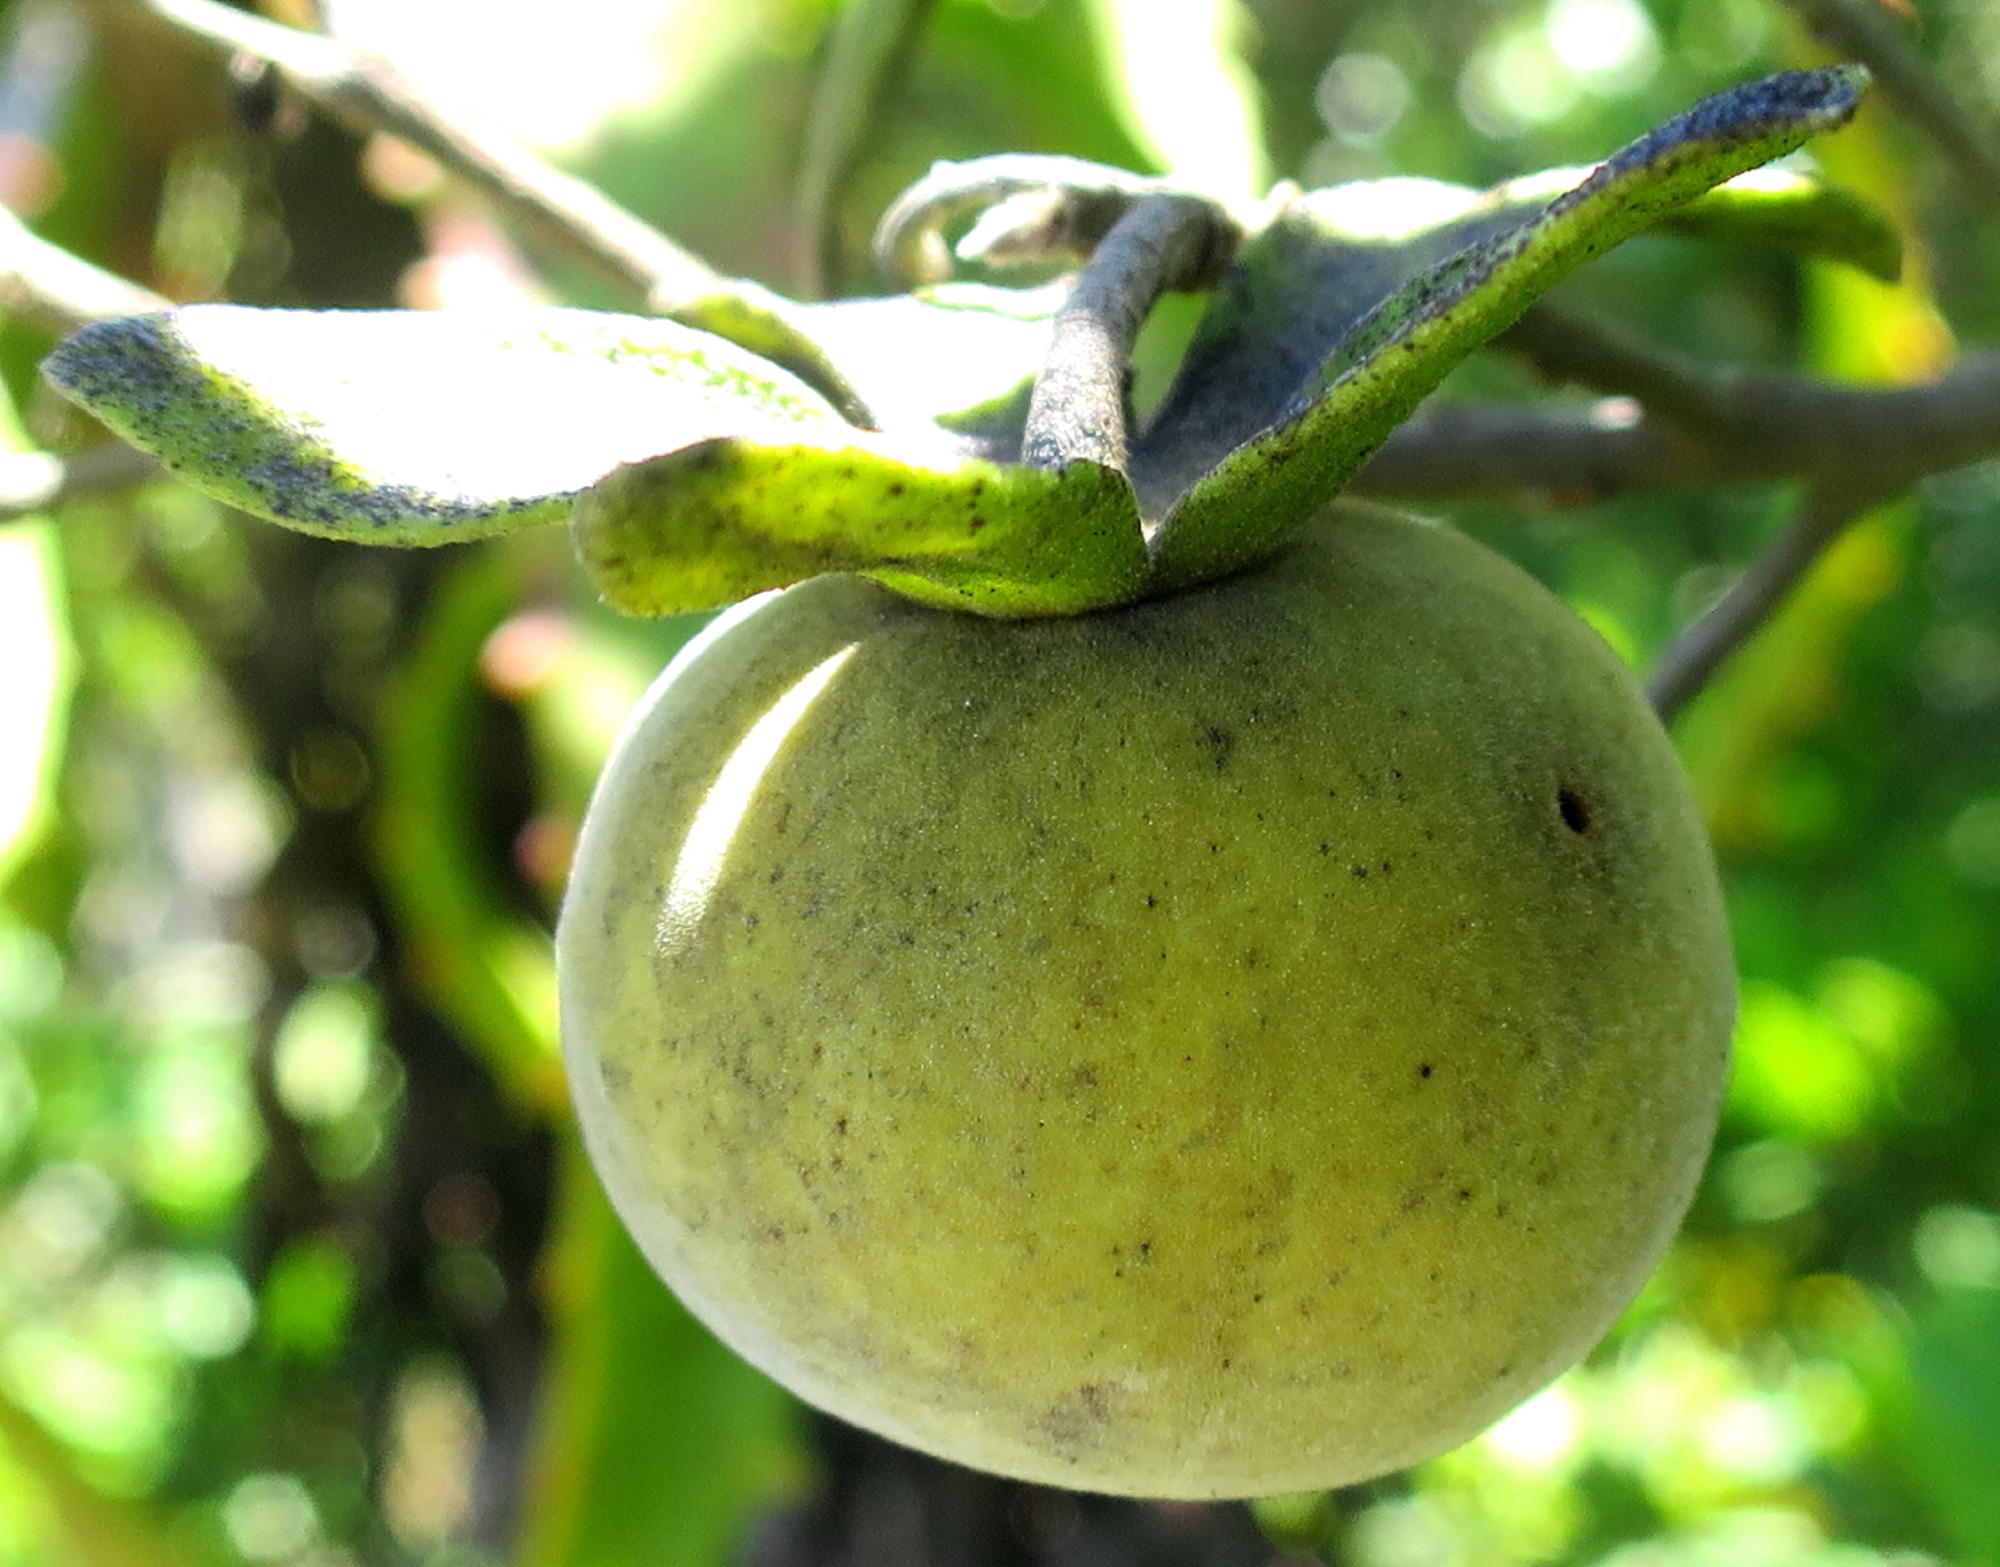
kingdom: Plantae
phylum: Tracheophyta
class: Magnoliopsida
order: Ericales
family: Ebenaceae
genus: Diospyros
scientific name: Diospyros dichrophylla
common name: Common star-apple
